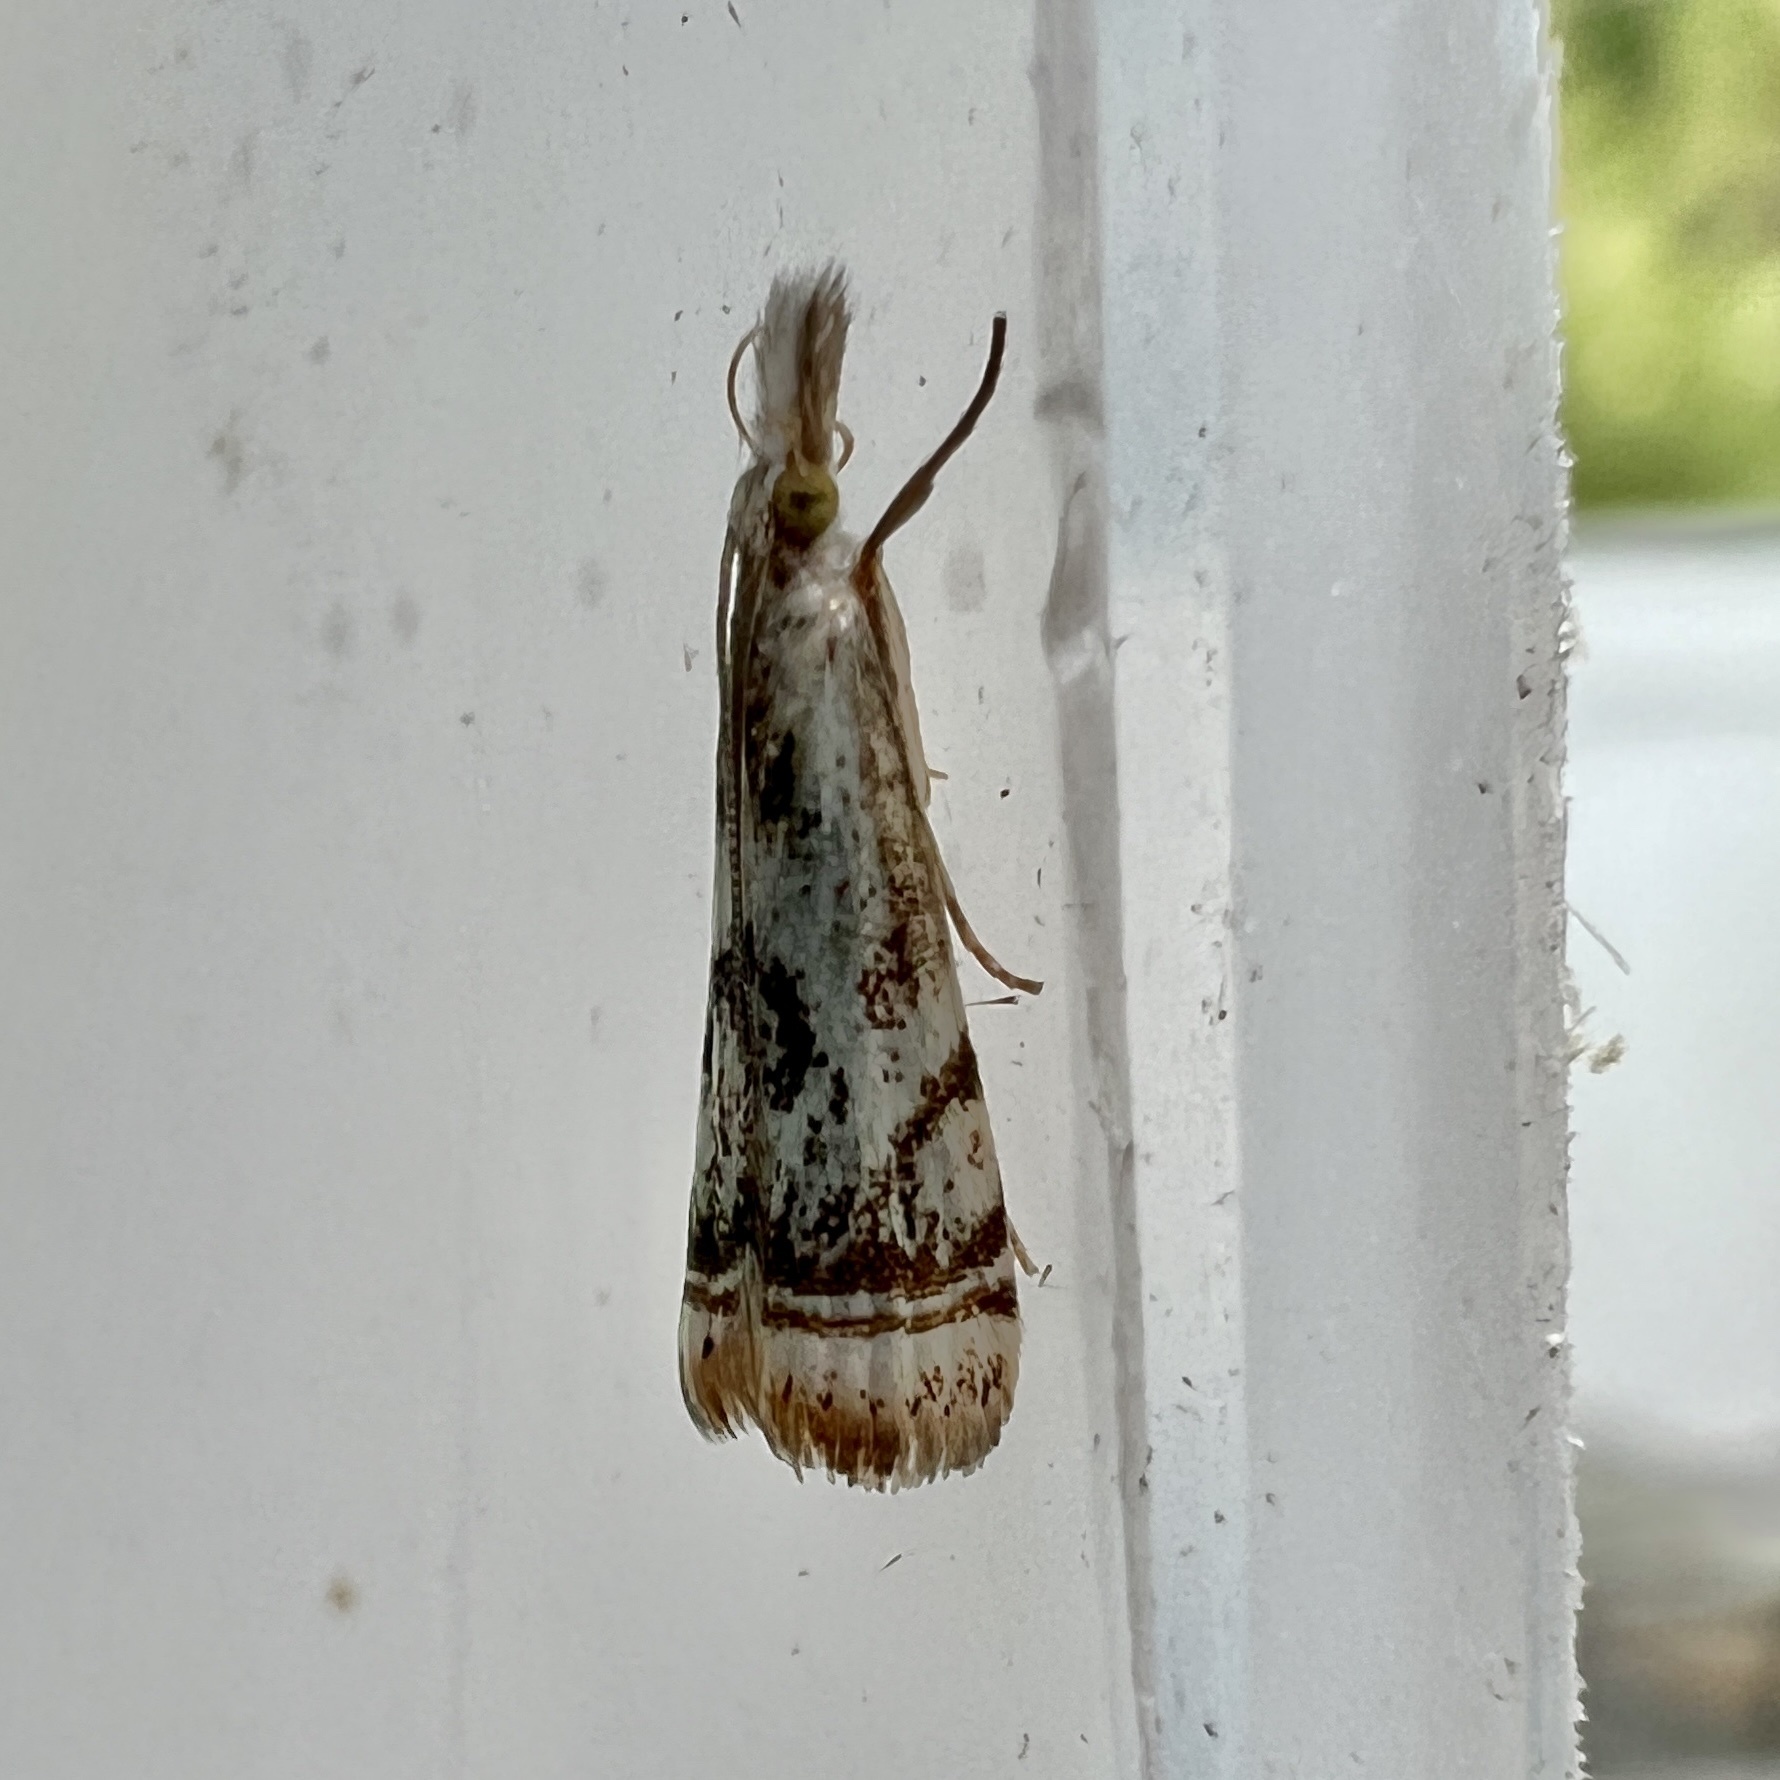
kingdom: Animalia
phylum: Arthropoda
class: Insecta
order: Lepidoptera
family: Crambidae
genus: Microcrambus
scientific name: Microcrambus elegans
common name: Elegant grass-veneer
